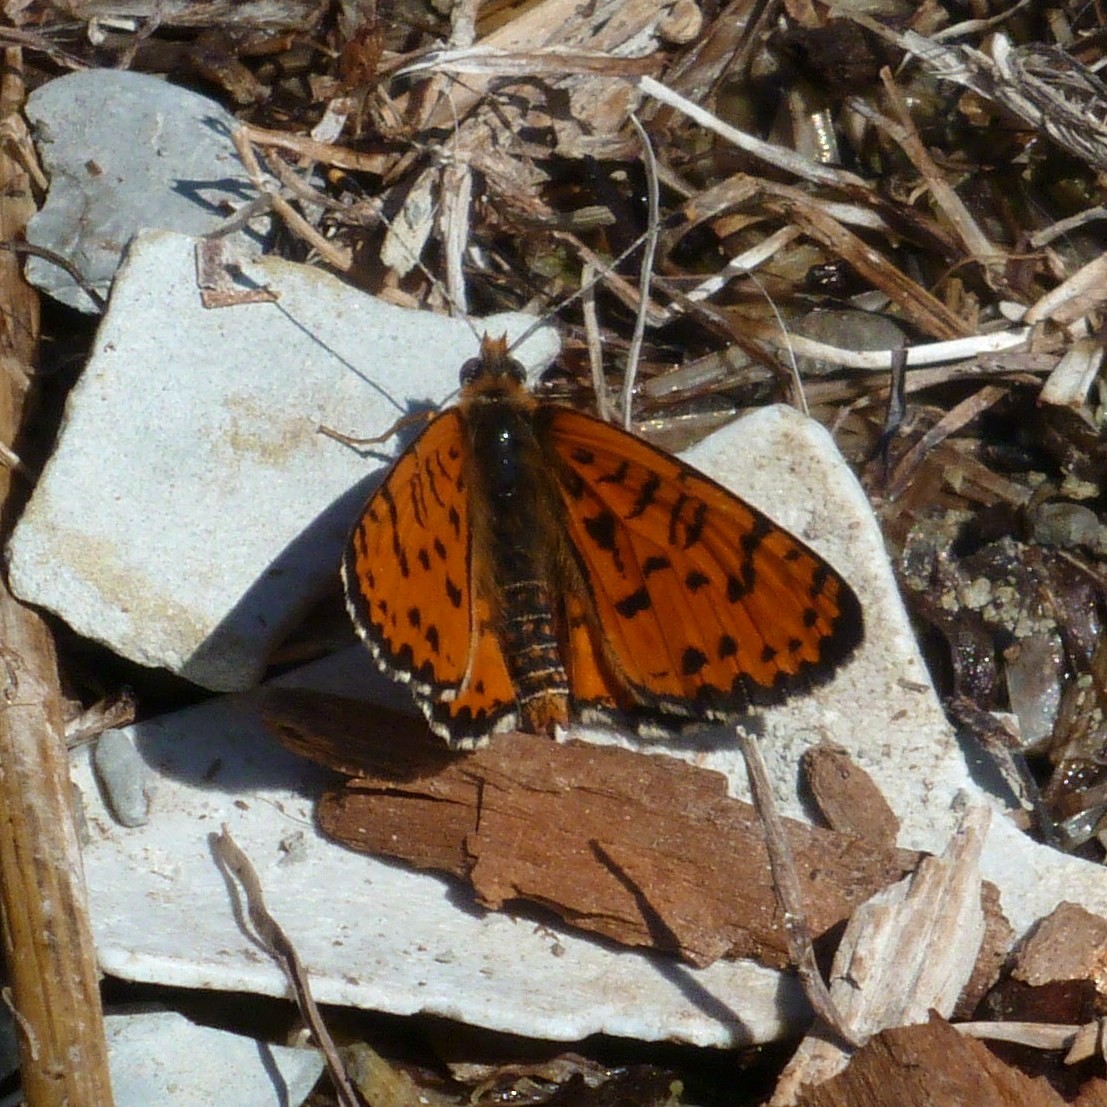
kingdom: Animalia
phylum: Arthropoda
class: Insecta
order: Lepidoptera
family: Nymphalidae
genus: Melitaea
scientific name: Melitaea didyma
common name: Spotted fritillary
